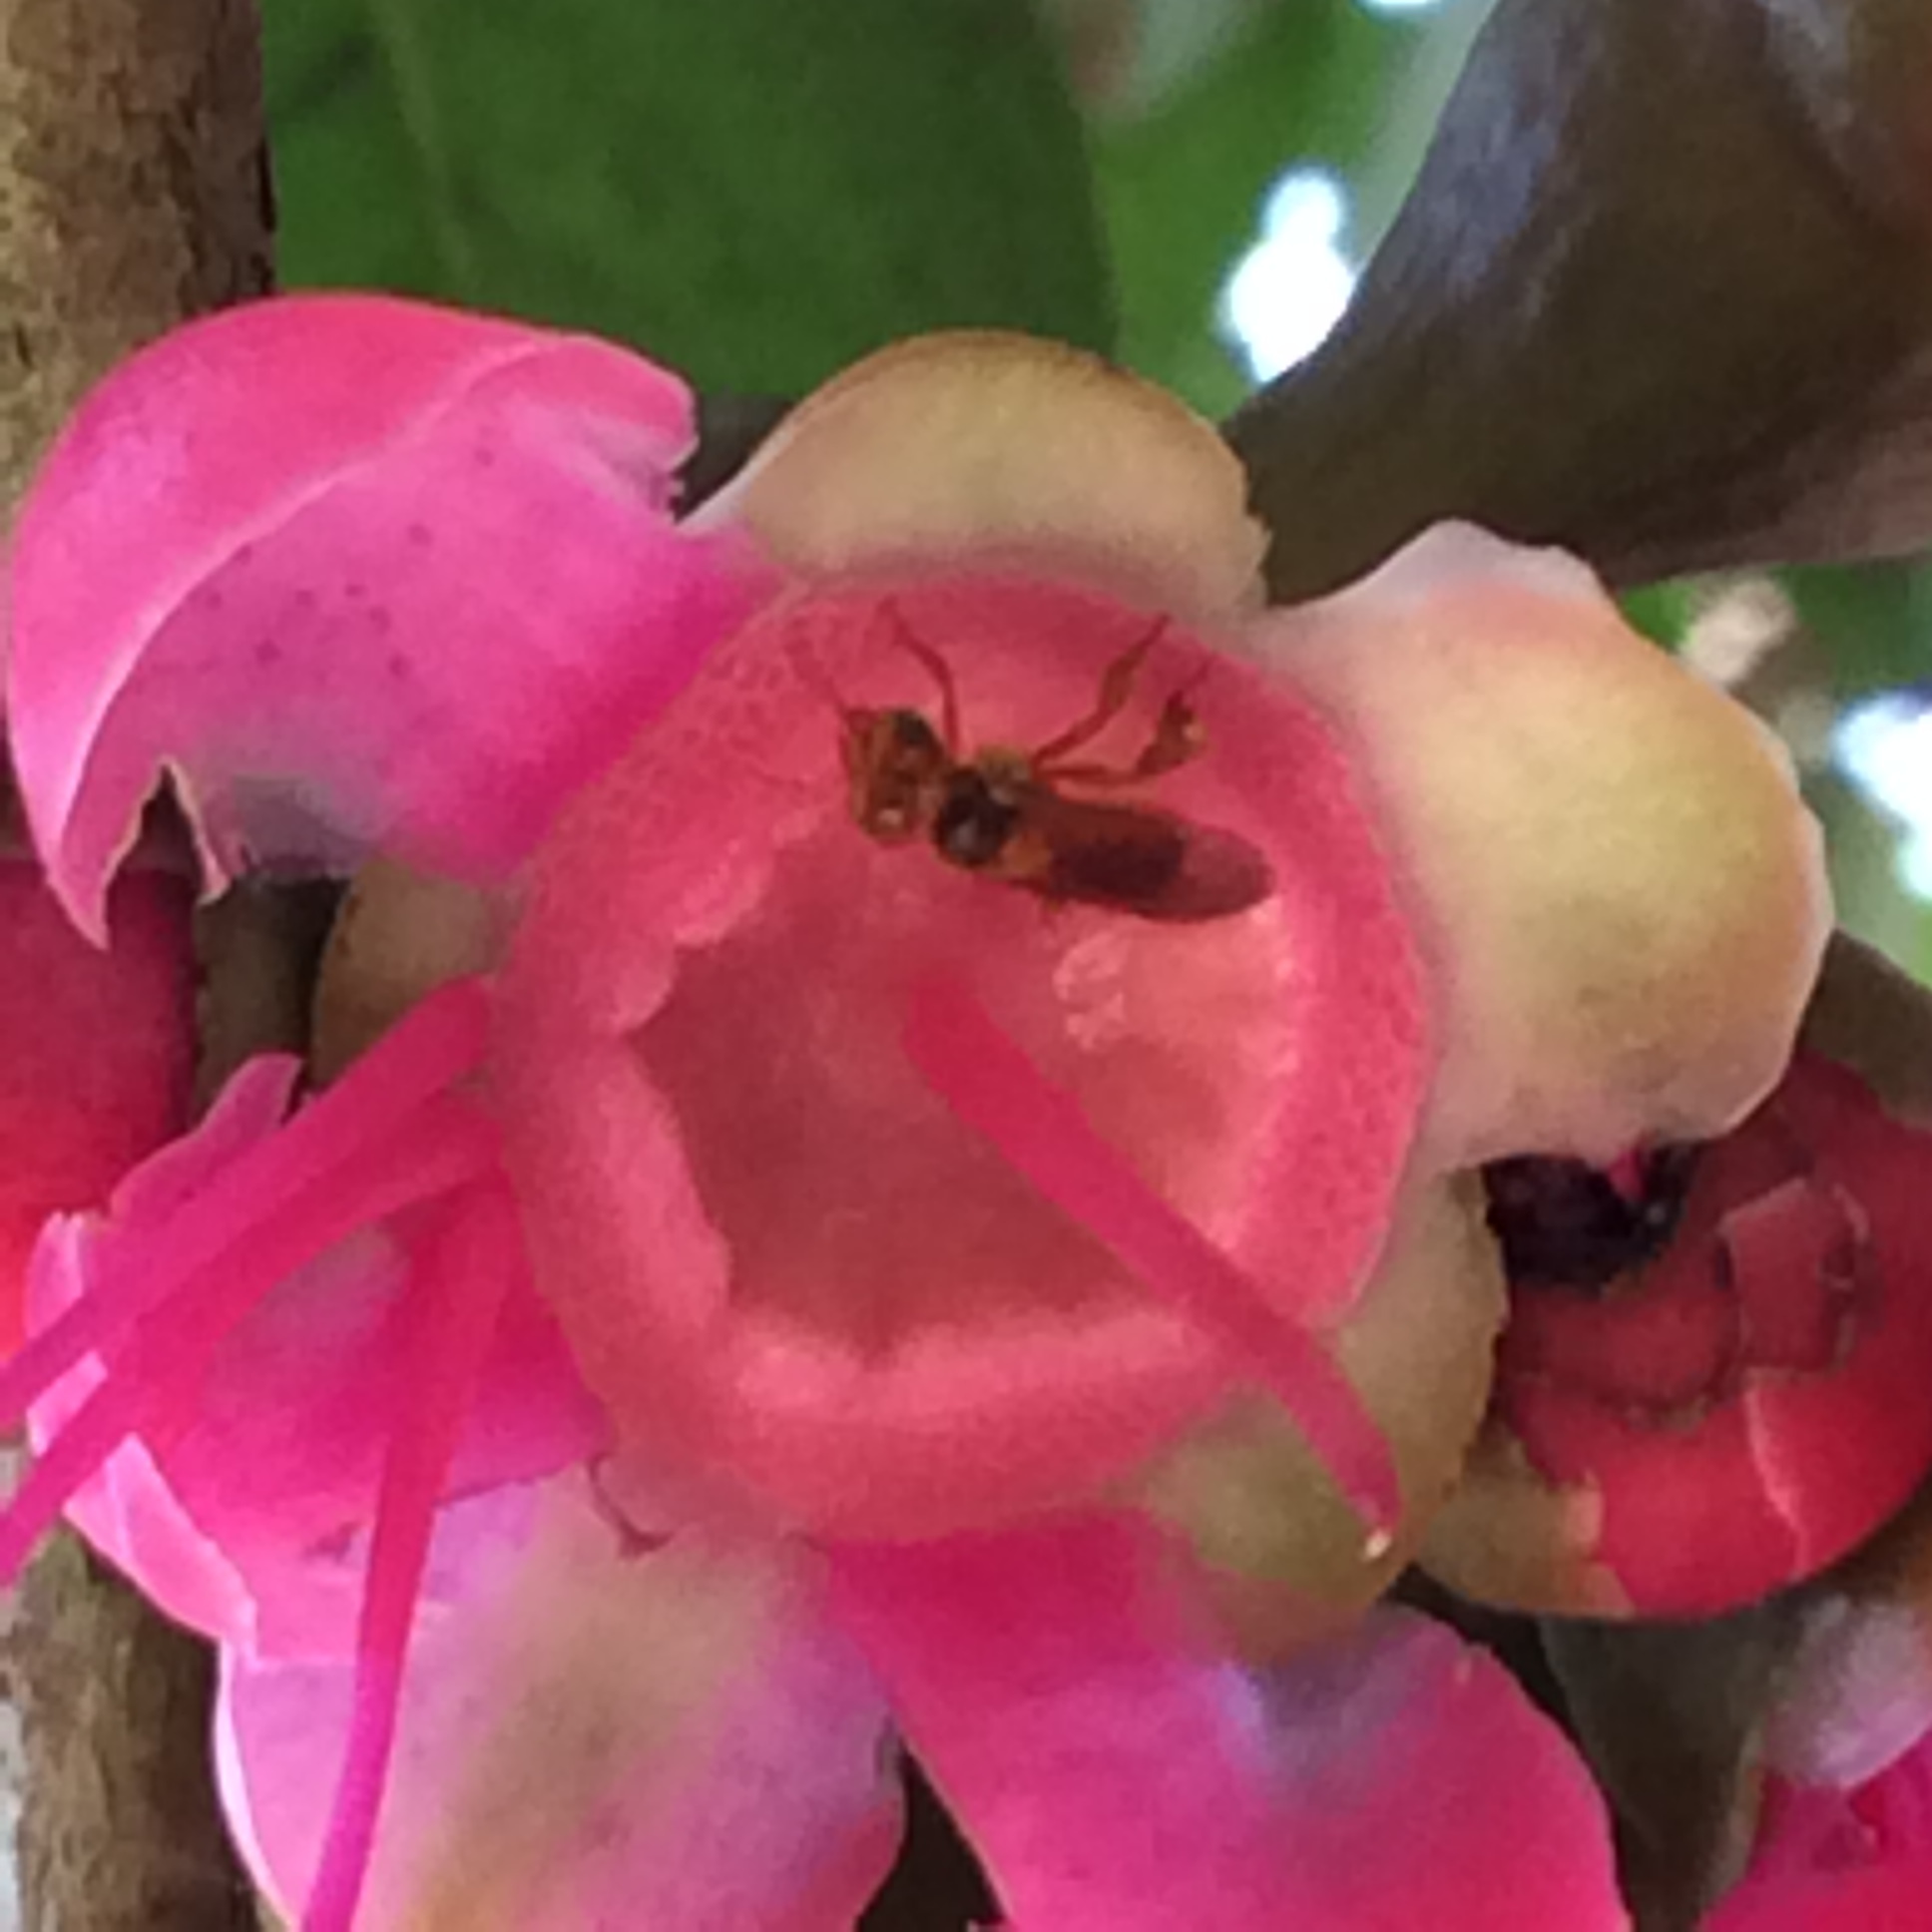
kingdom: Animalia
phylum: Arthropoda
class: Insecta
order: Hymenoptera
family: Apidae
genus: Trigona
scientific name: Trigona chanchamayoensis
